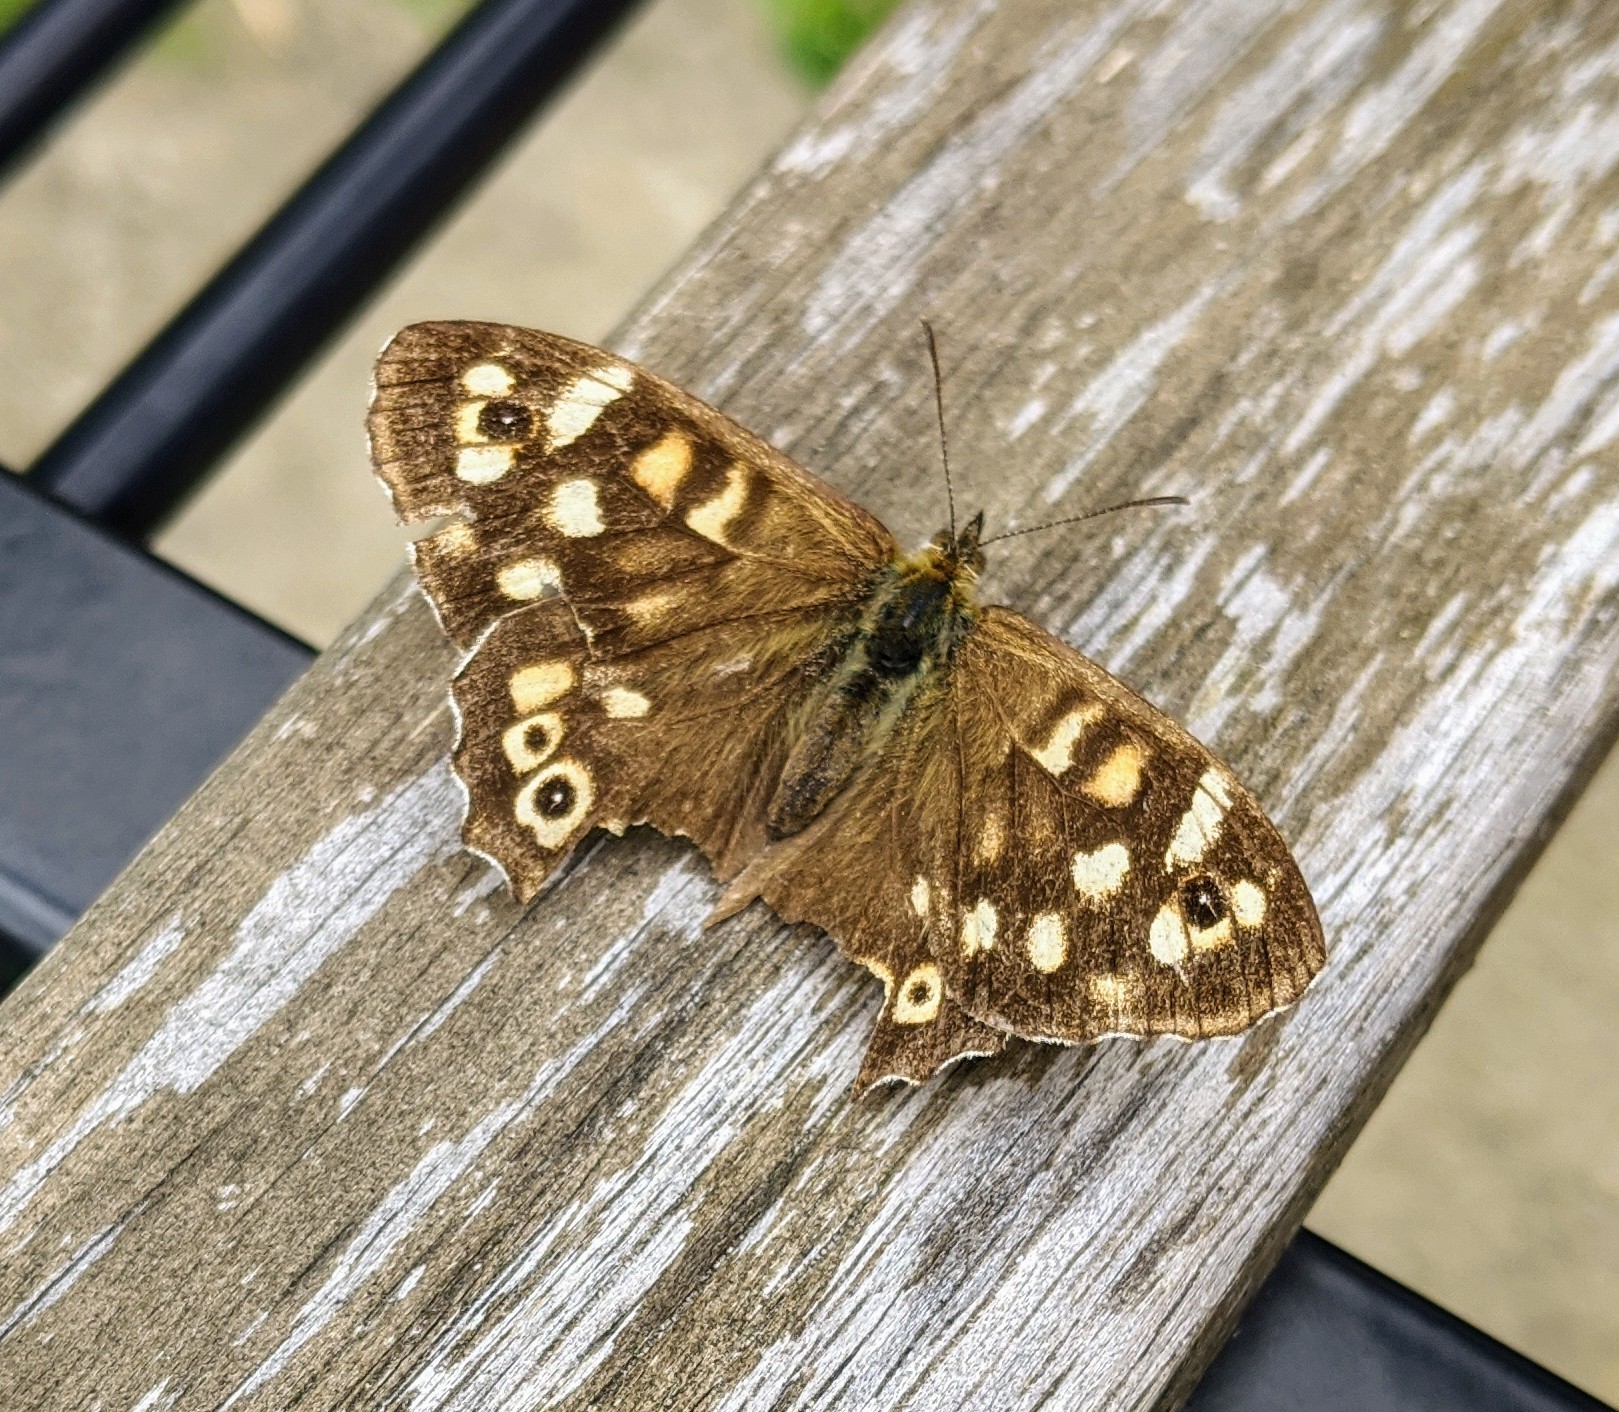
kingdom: Animalia
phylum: Arthropoda
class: Insecta
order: Lepidoptera
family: Nymphalidae
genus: Pararge
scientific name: Pararge aegeria
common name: Speckled wood
